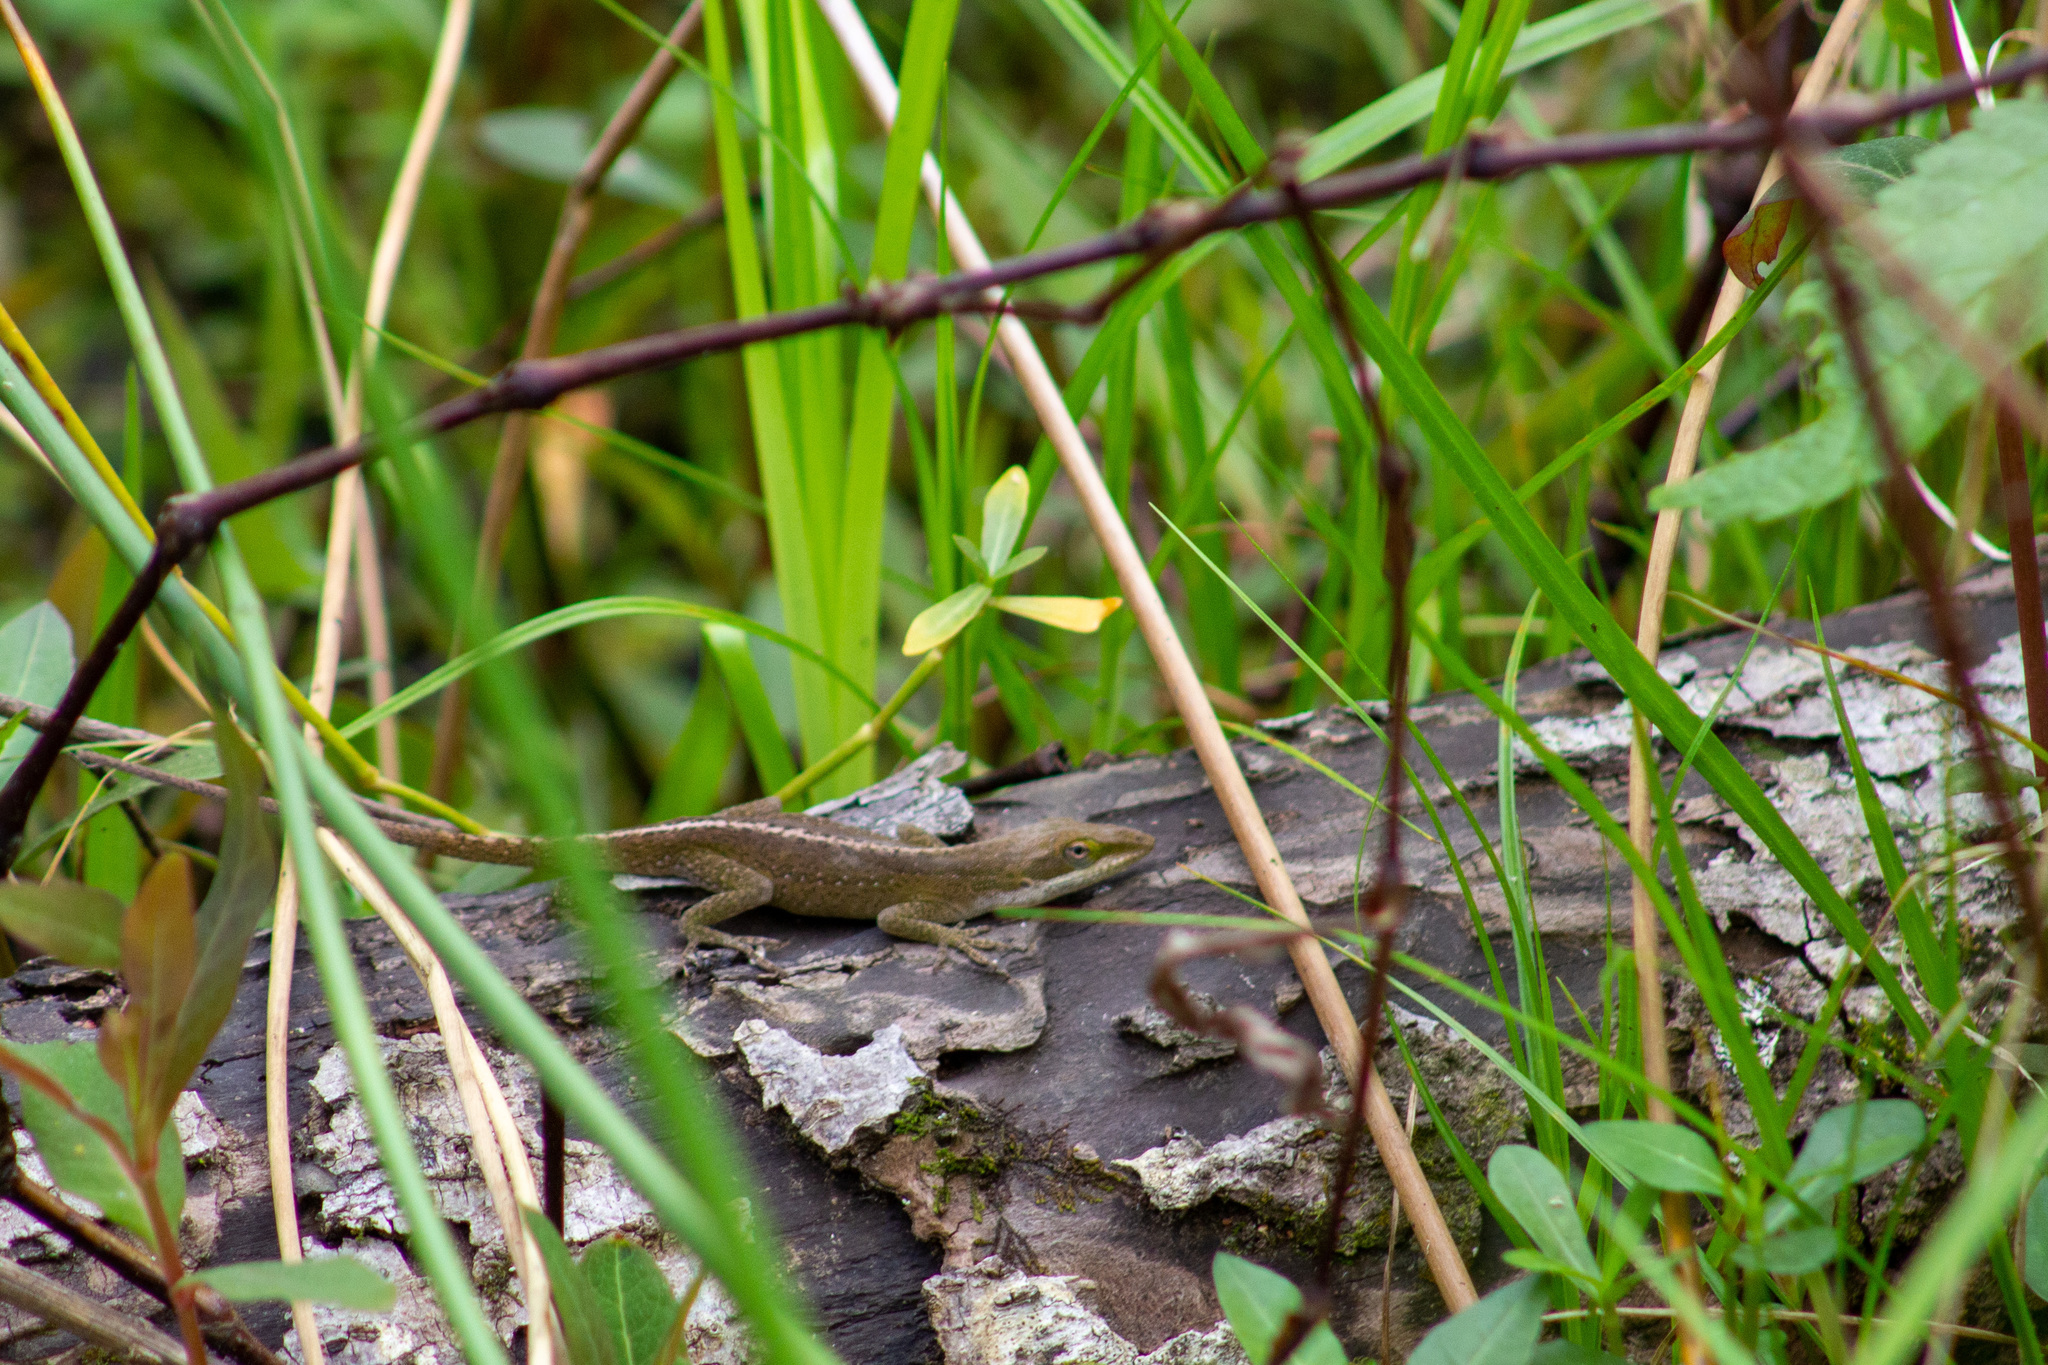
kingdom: Animalia
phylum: Chordata
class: Squamata
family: Dactyloidae
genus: Anolis
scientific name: Anolis carolinensis
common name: Green anole
